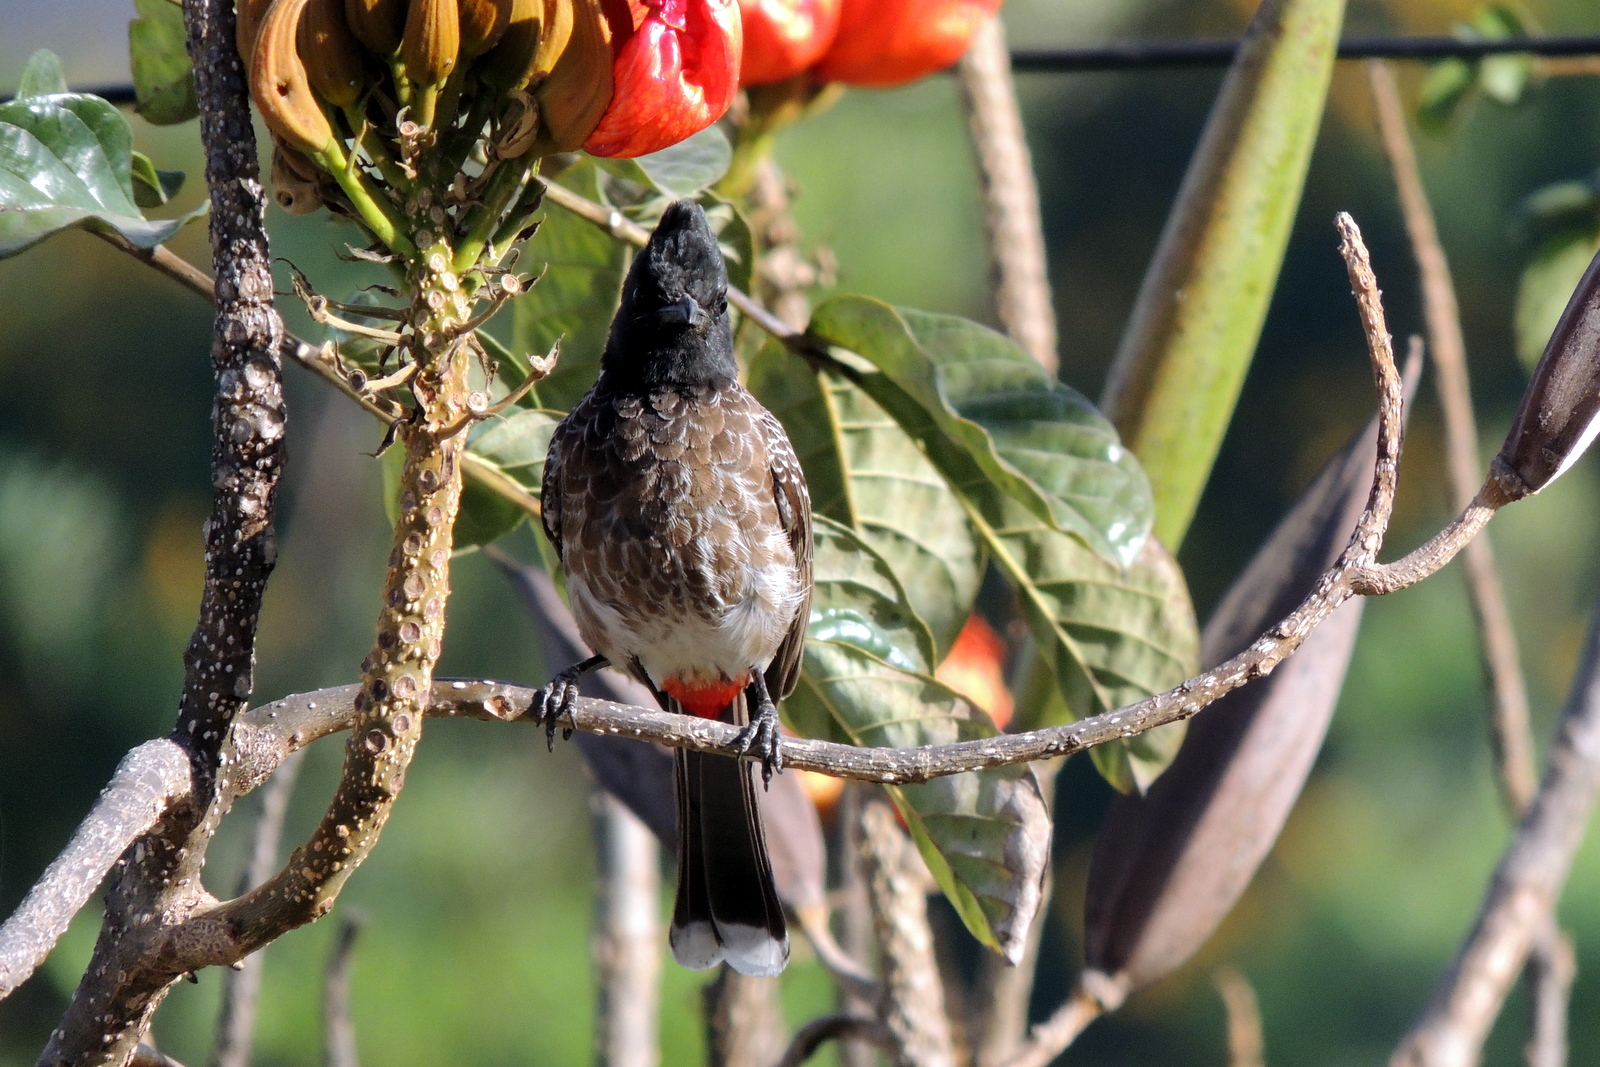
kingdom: Animalia
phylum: Chordata
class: Aves
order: Passeriformes
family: Pycnonotidae
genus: Pycnonotus
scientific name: Pycnonotus cafer
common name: Red-vented bulbul
